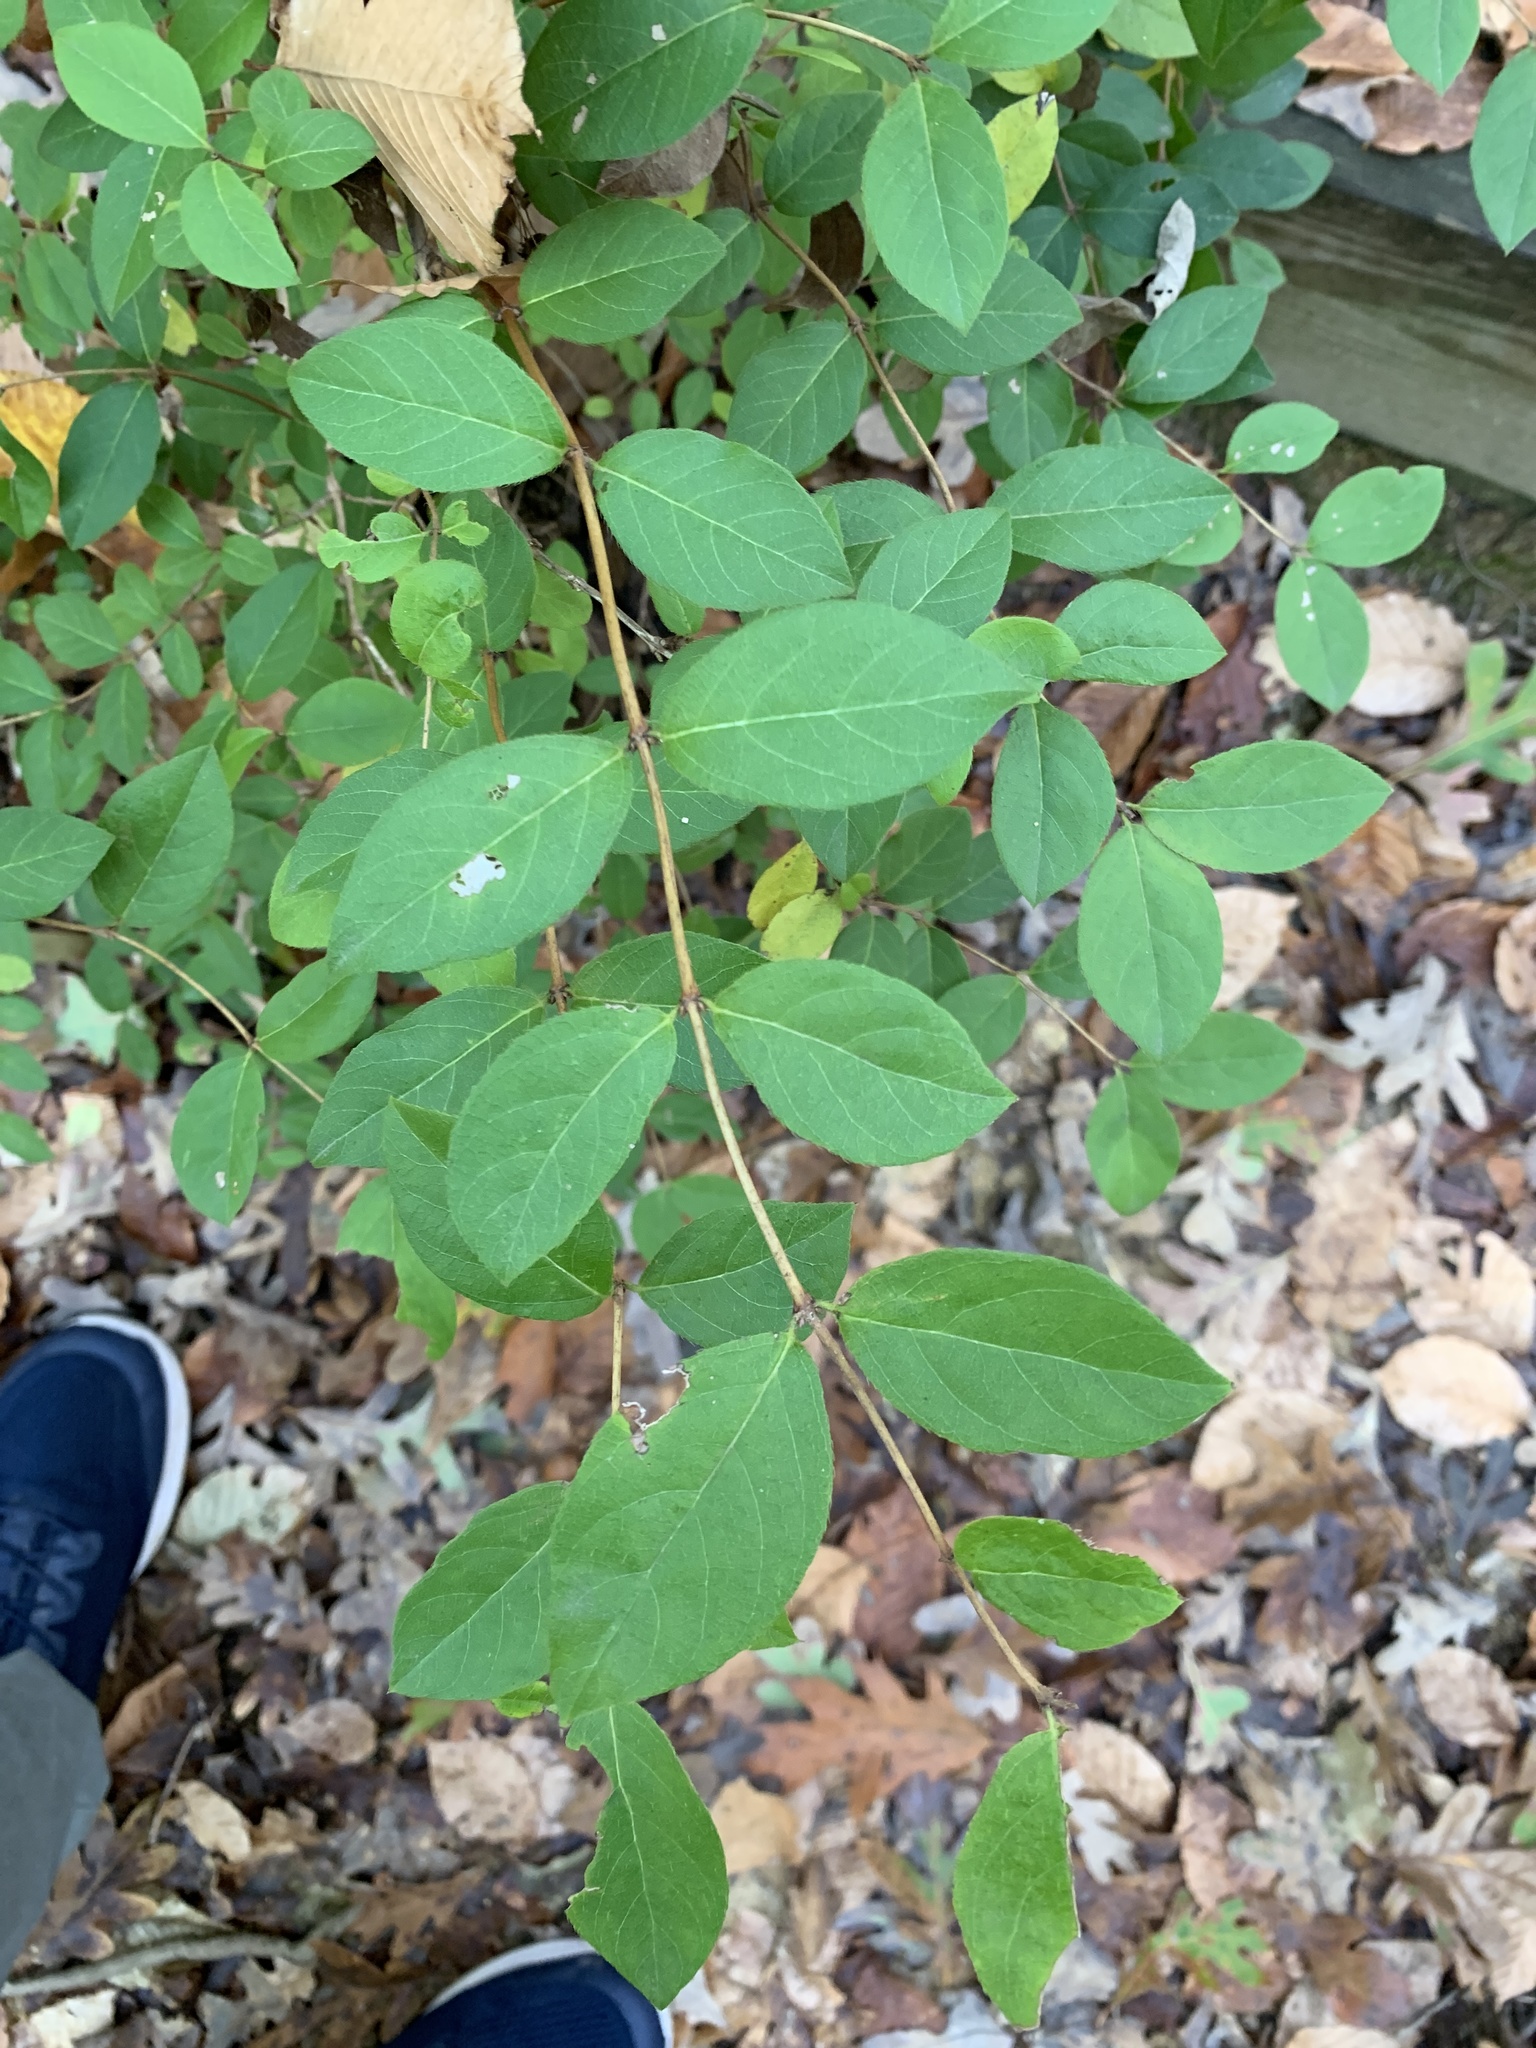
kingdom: Plantae
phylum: Tracheophyta
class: Magnoliopsida
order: Dipsacales
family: Caprifoliaceae
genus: Lonicera
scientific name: Lonicera fragrantissima
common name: Fragrant honeysuckle
